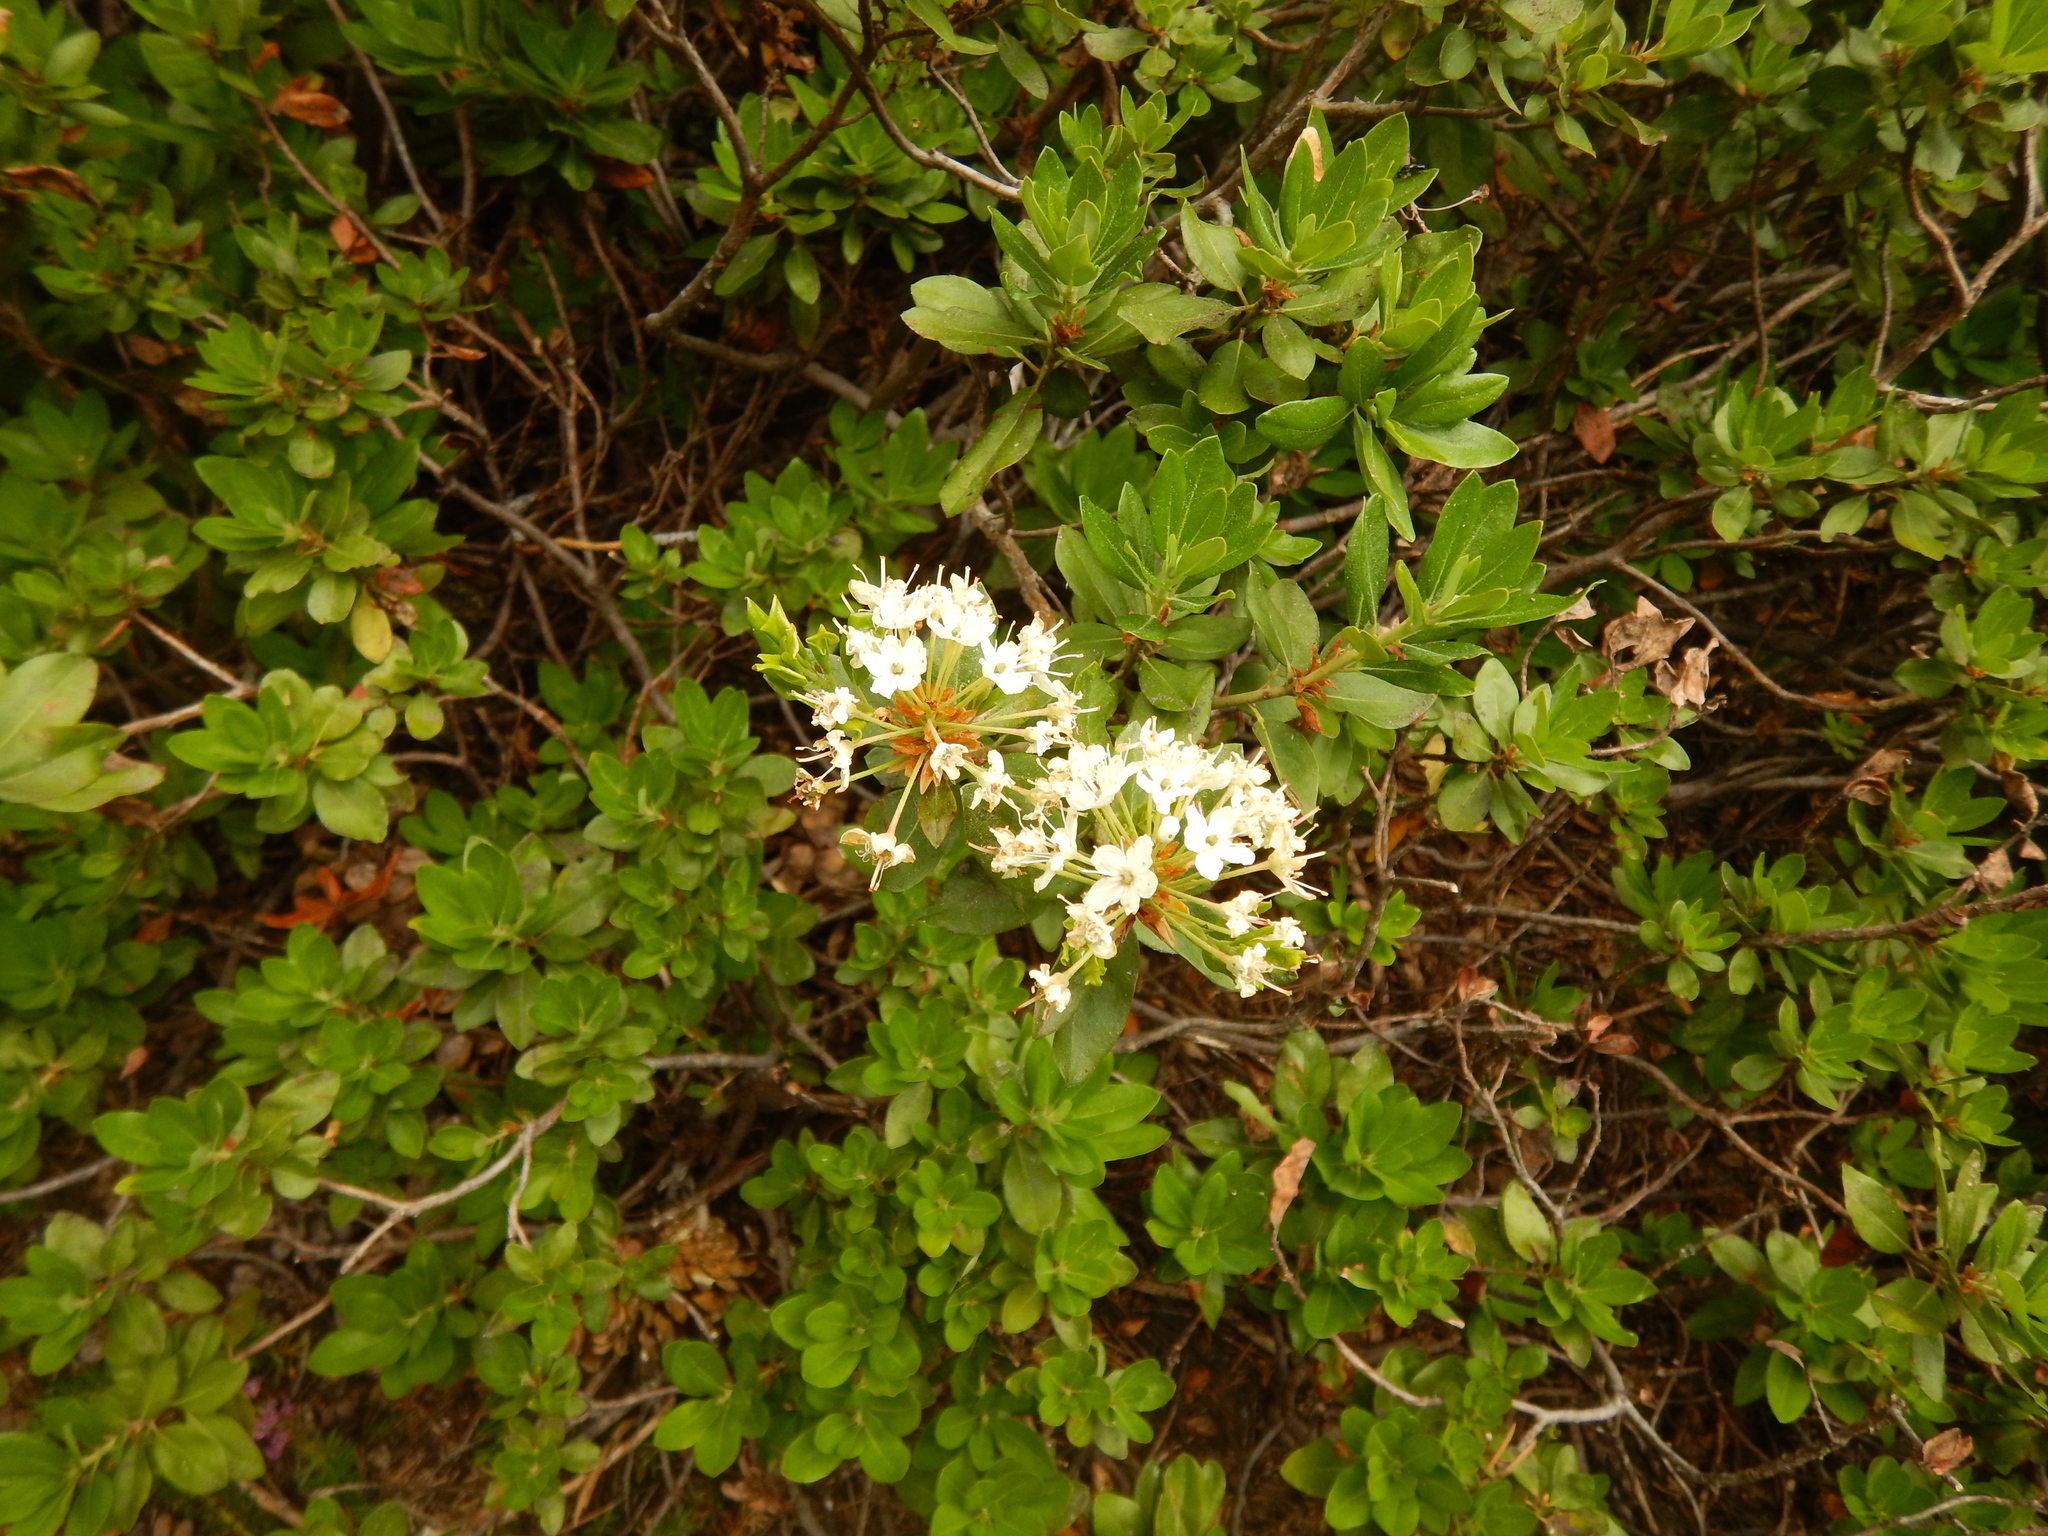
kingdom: Plantae
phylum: Tracheophyta
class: Magnoliopsida
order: Ericales
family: Ericaceae
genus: Rhododendron
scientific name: Rhododendron columbianum
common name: Western labrador tea
